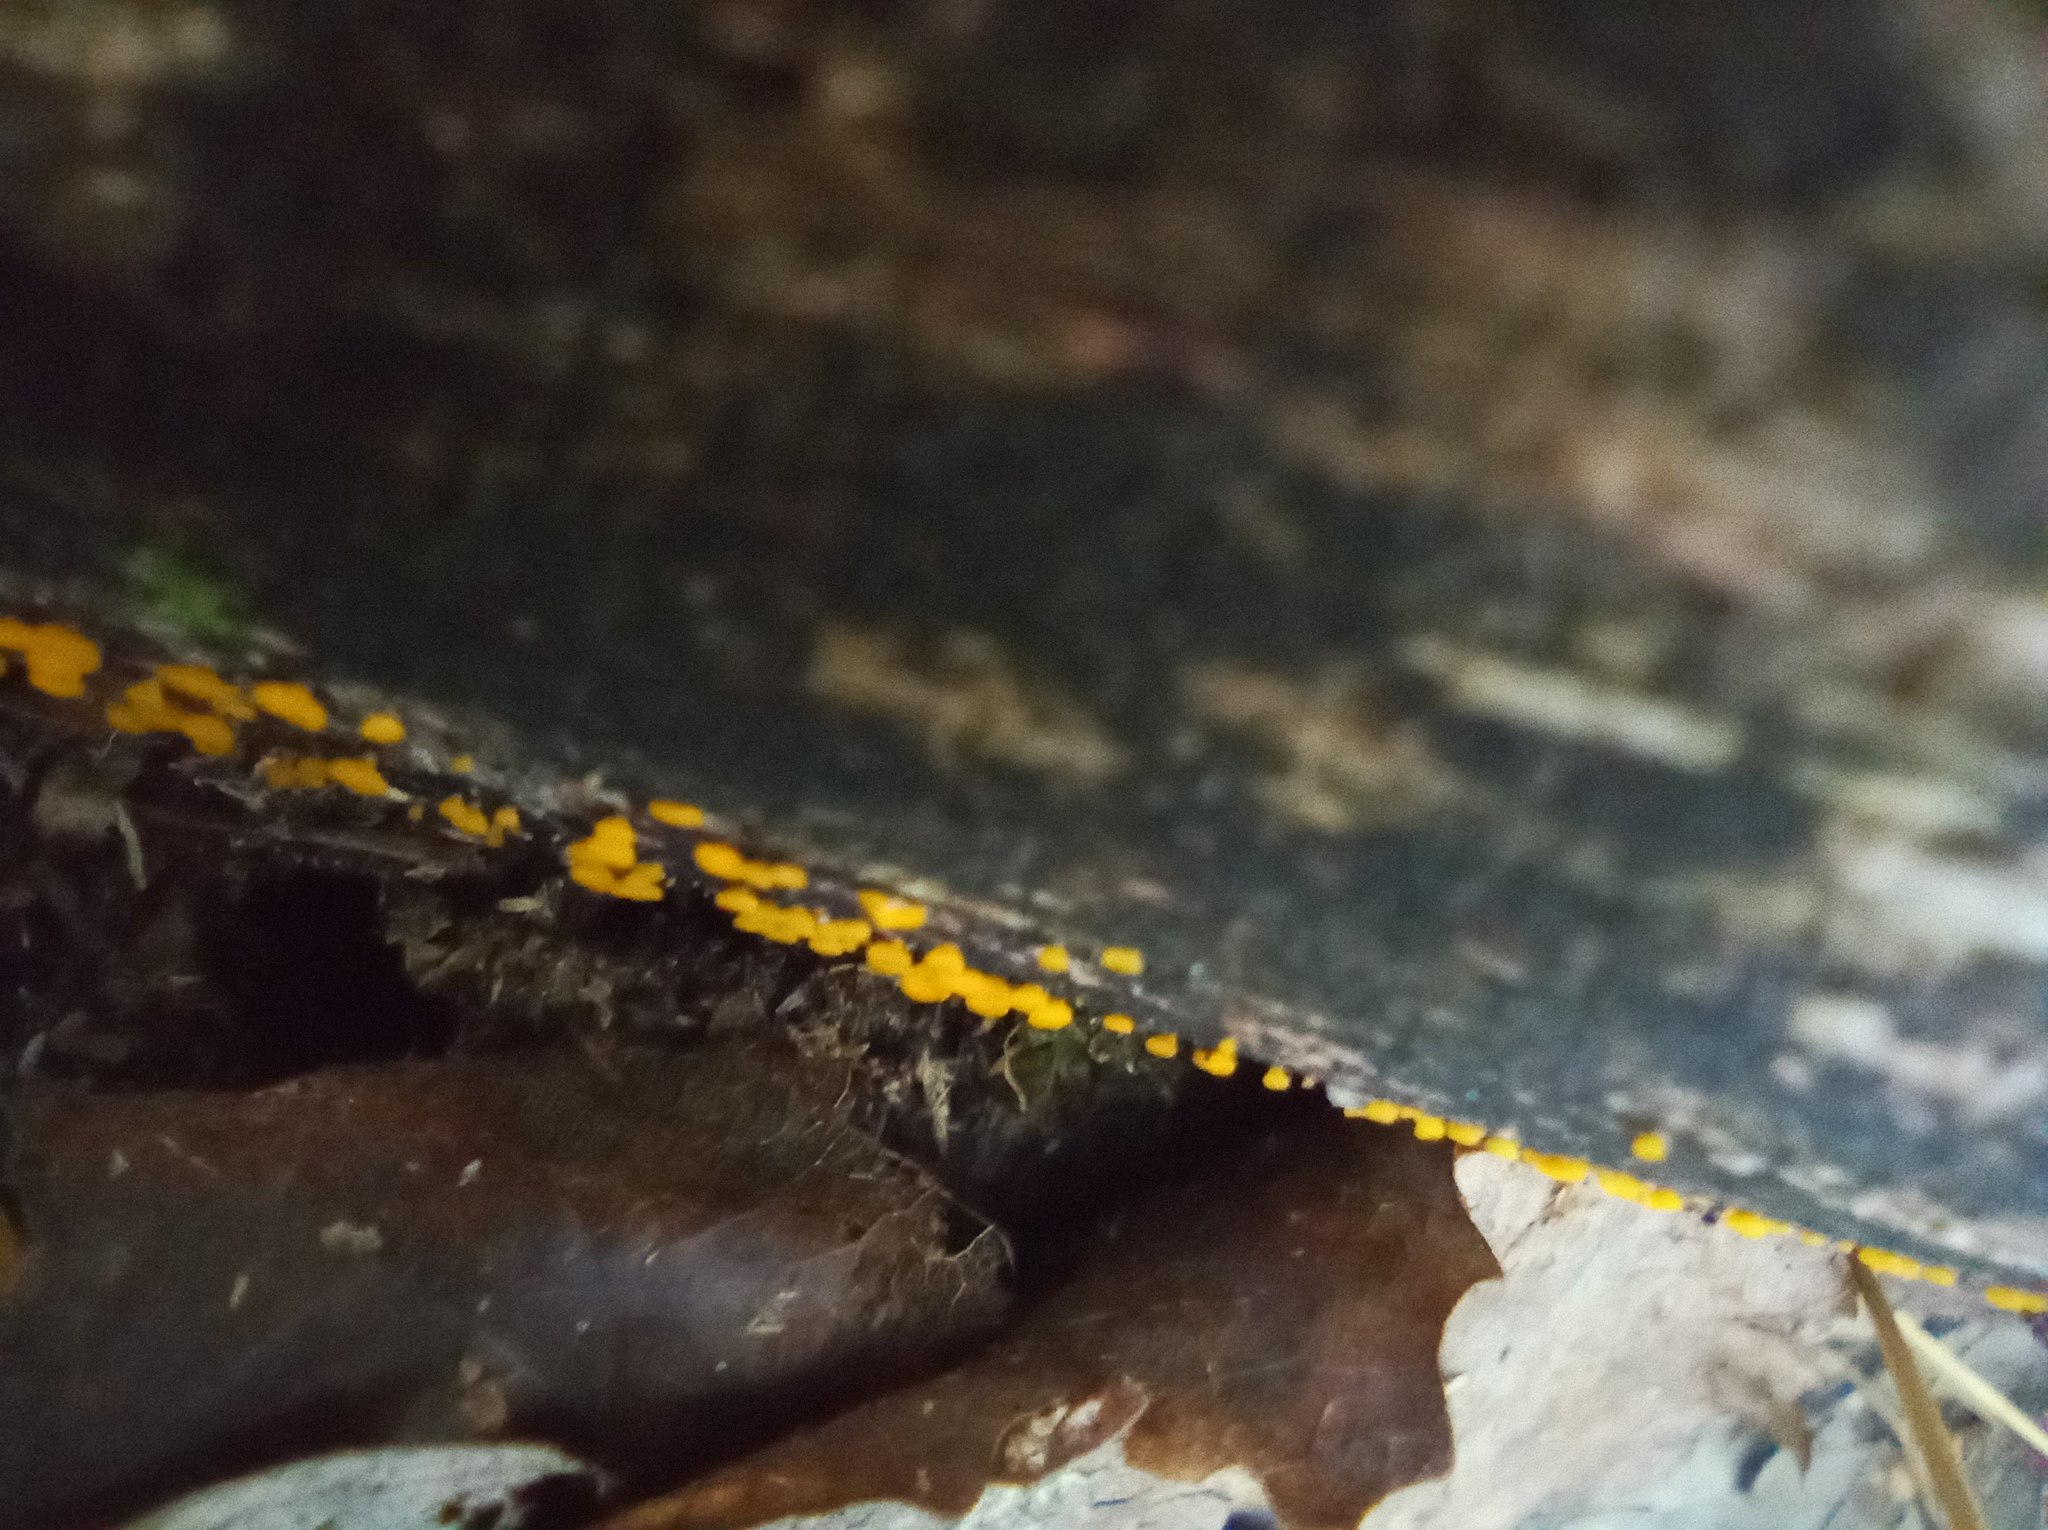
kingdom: Fungi
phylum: Ascomycota
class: Leotiomycetes
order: Helotiales
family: Pezizellaceae
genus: Calycina
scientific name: Calycina citrina
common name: Yellow fairy cups
